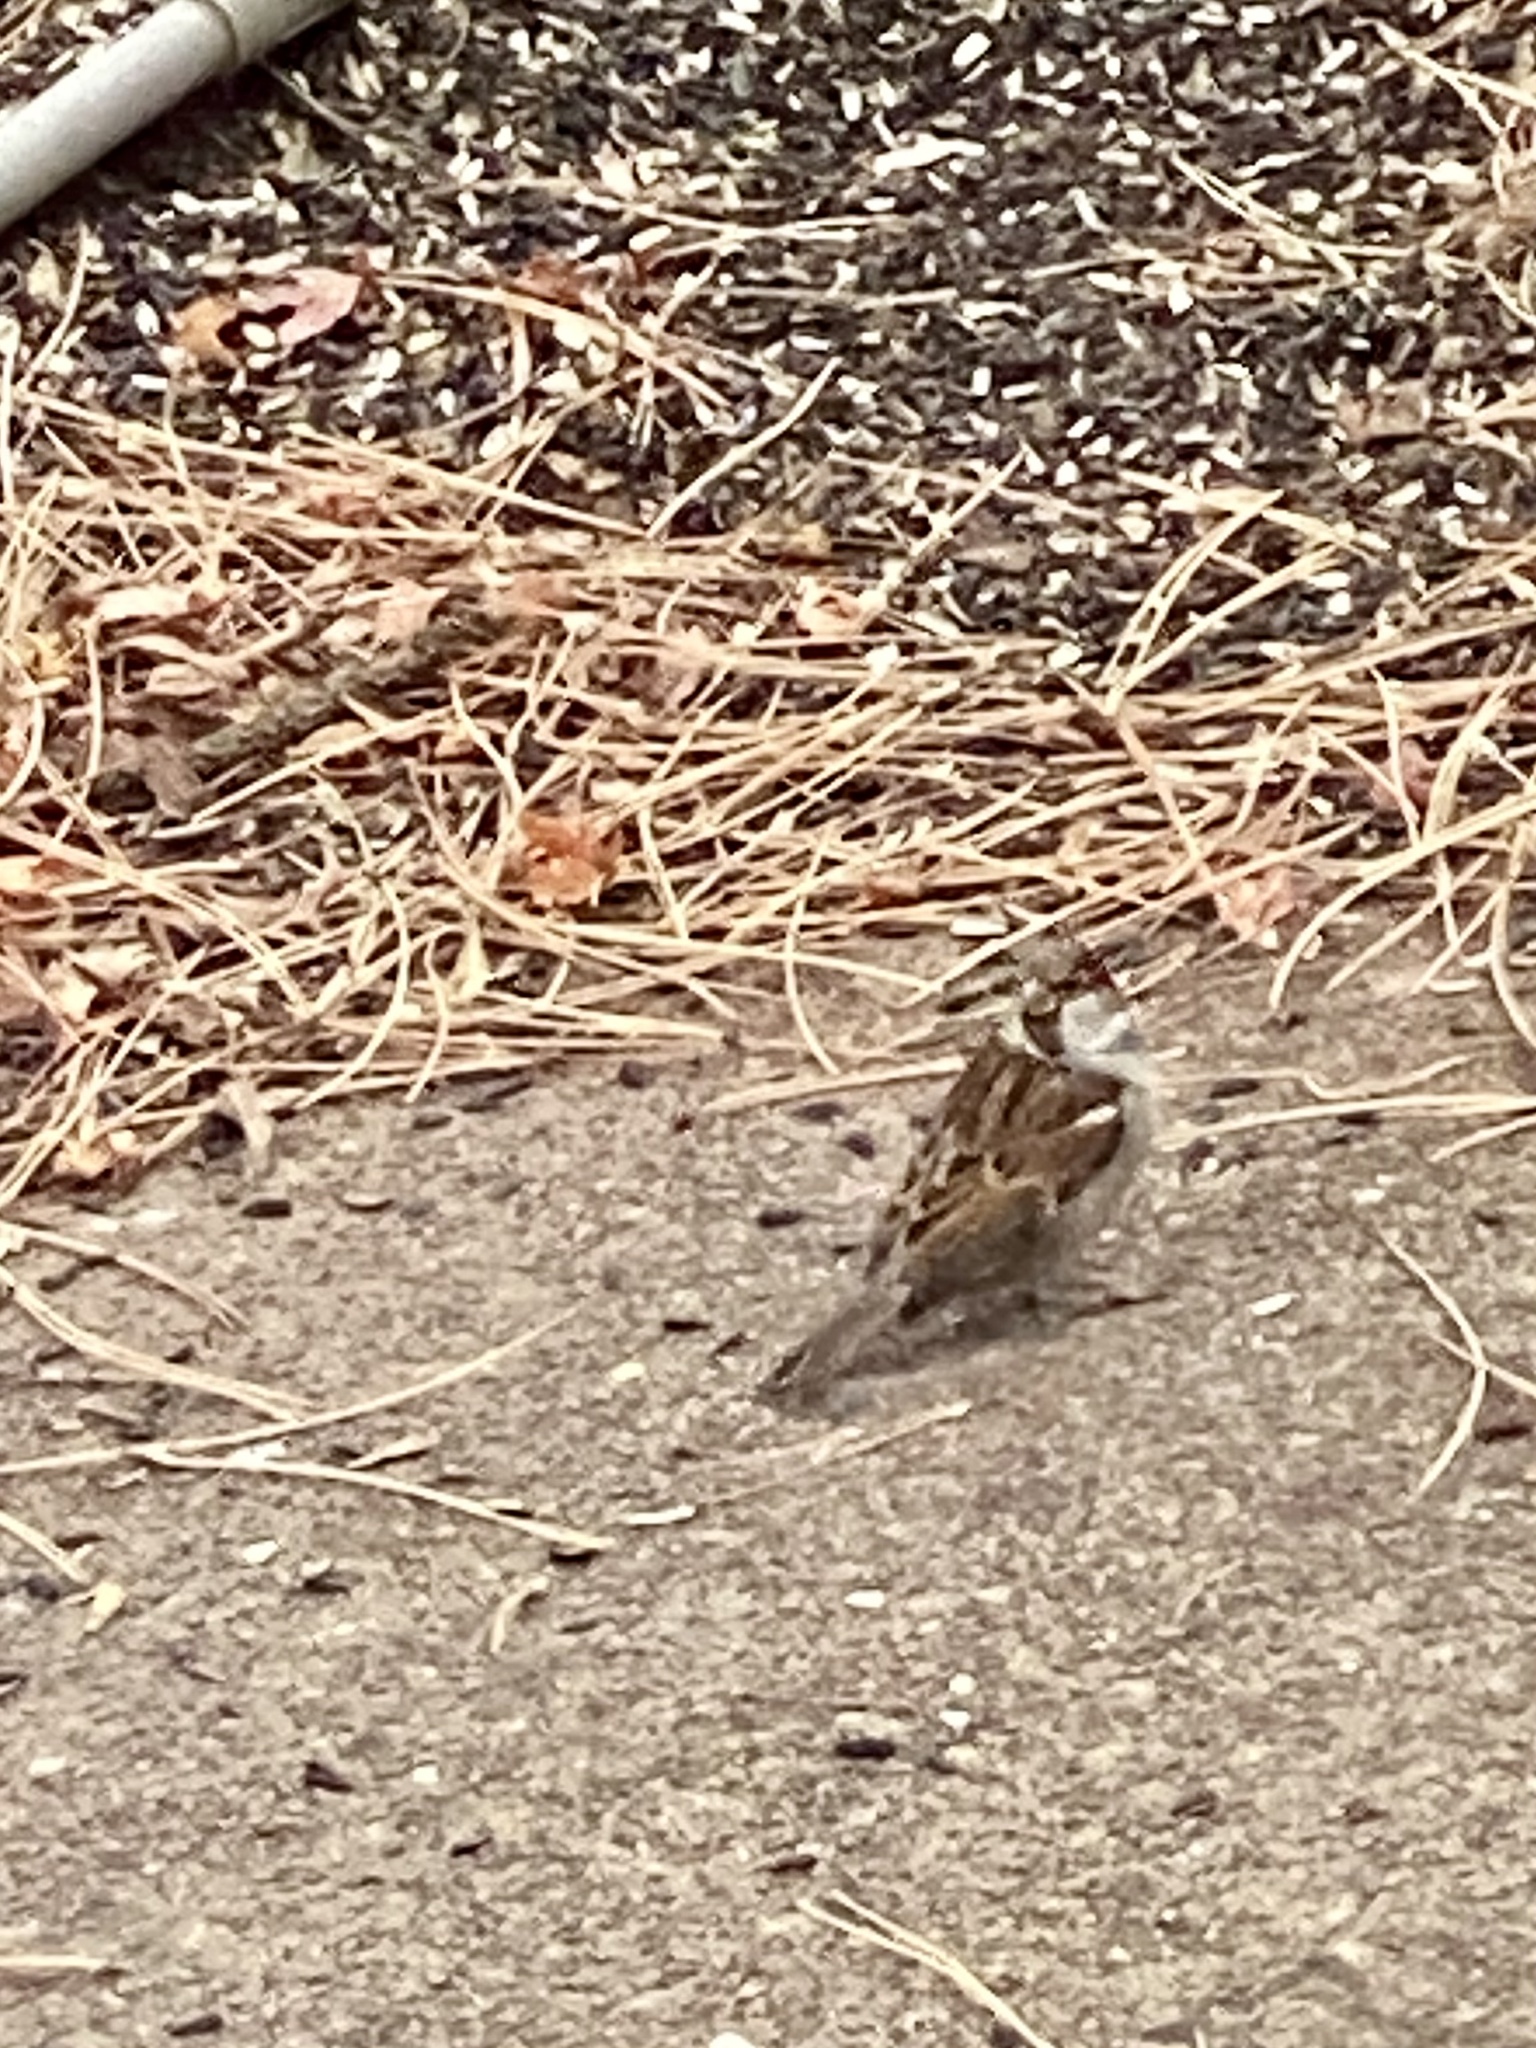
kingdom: Animalia
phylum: Chordata
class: Aves
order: Passeriformes
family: Passeridae
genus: Passer
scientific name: Passer domesticus
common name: House sparrow
